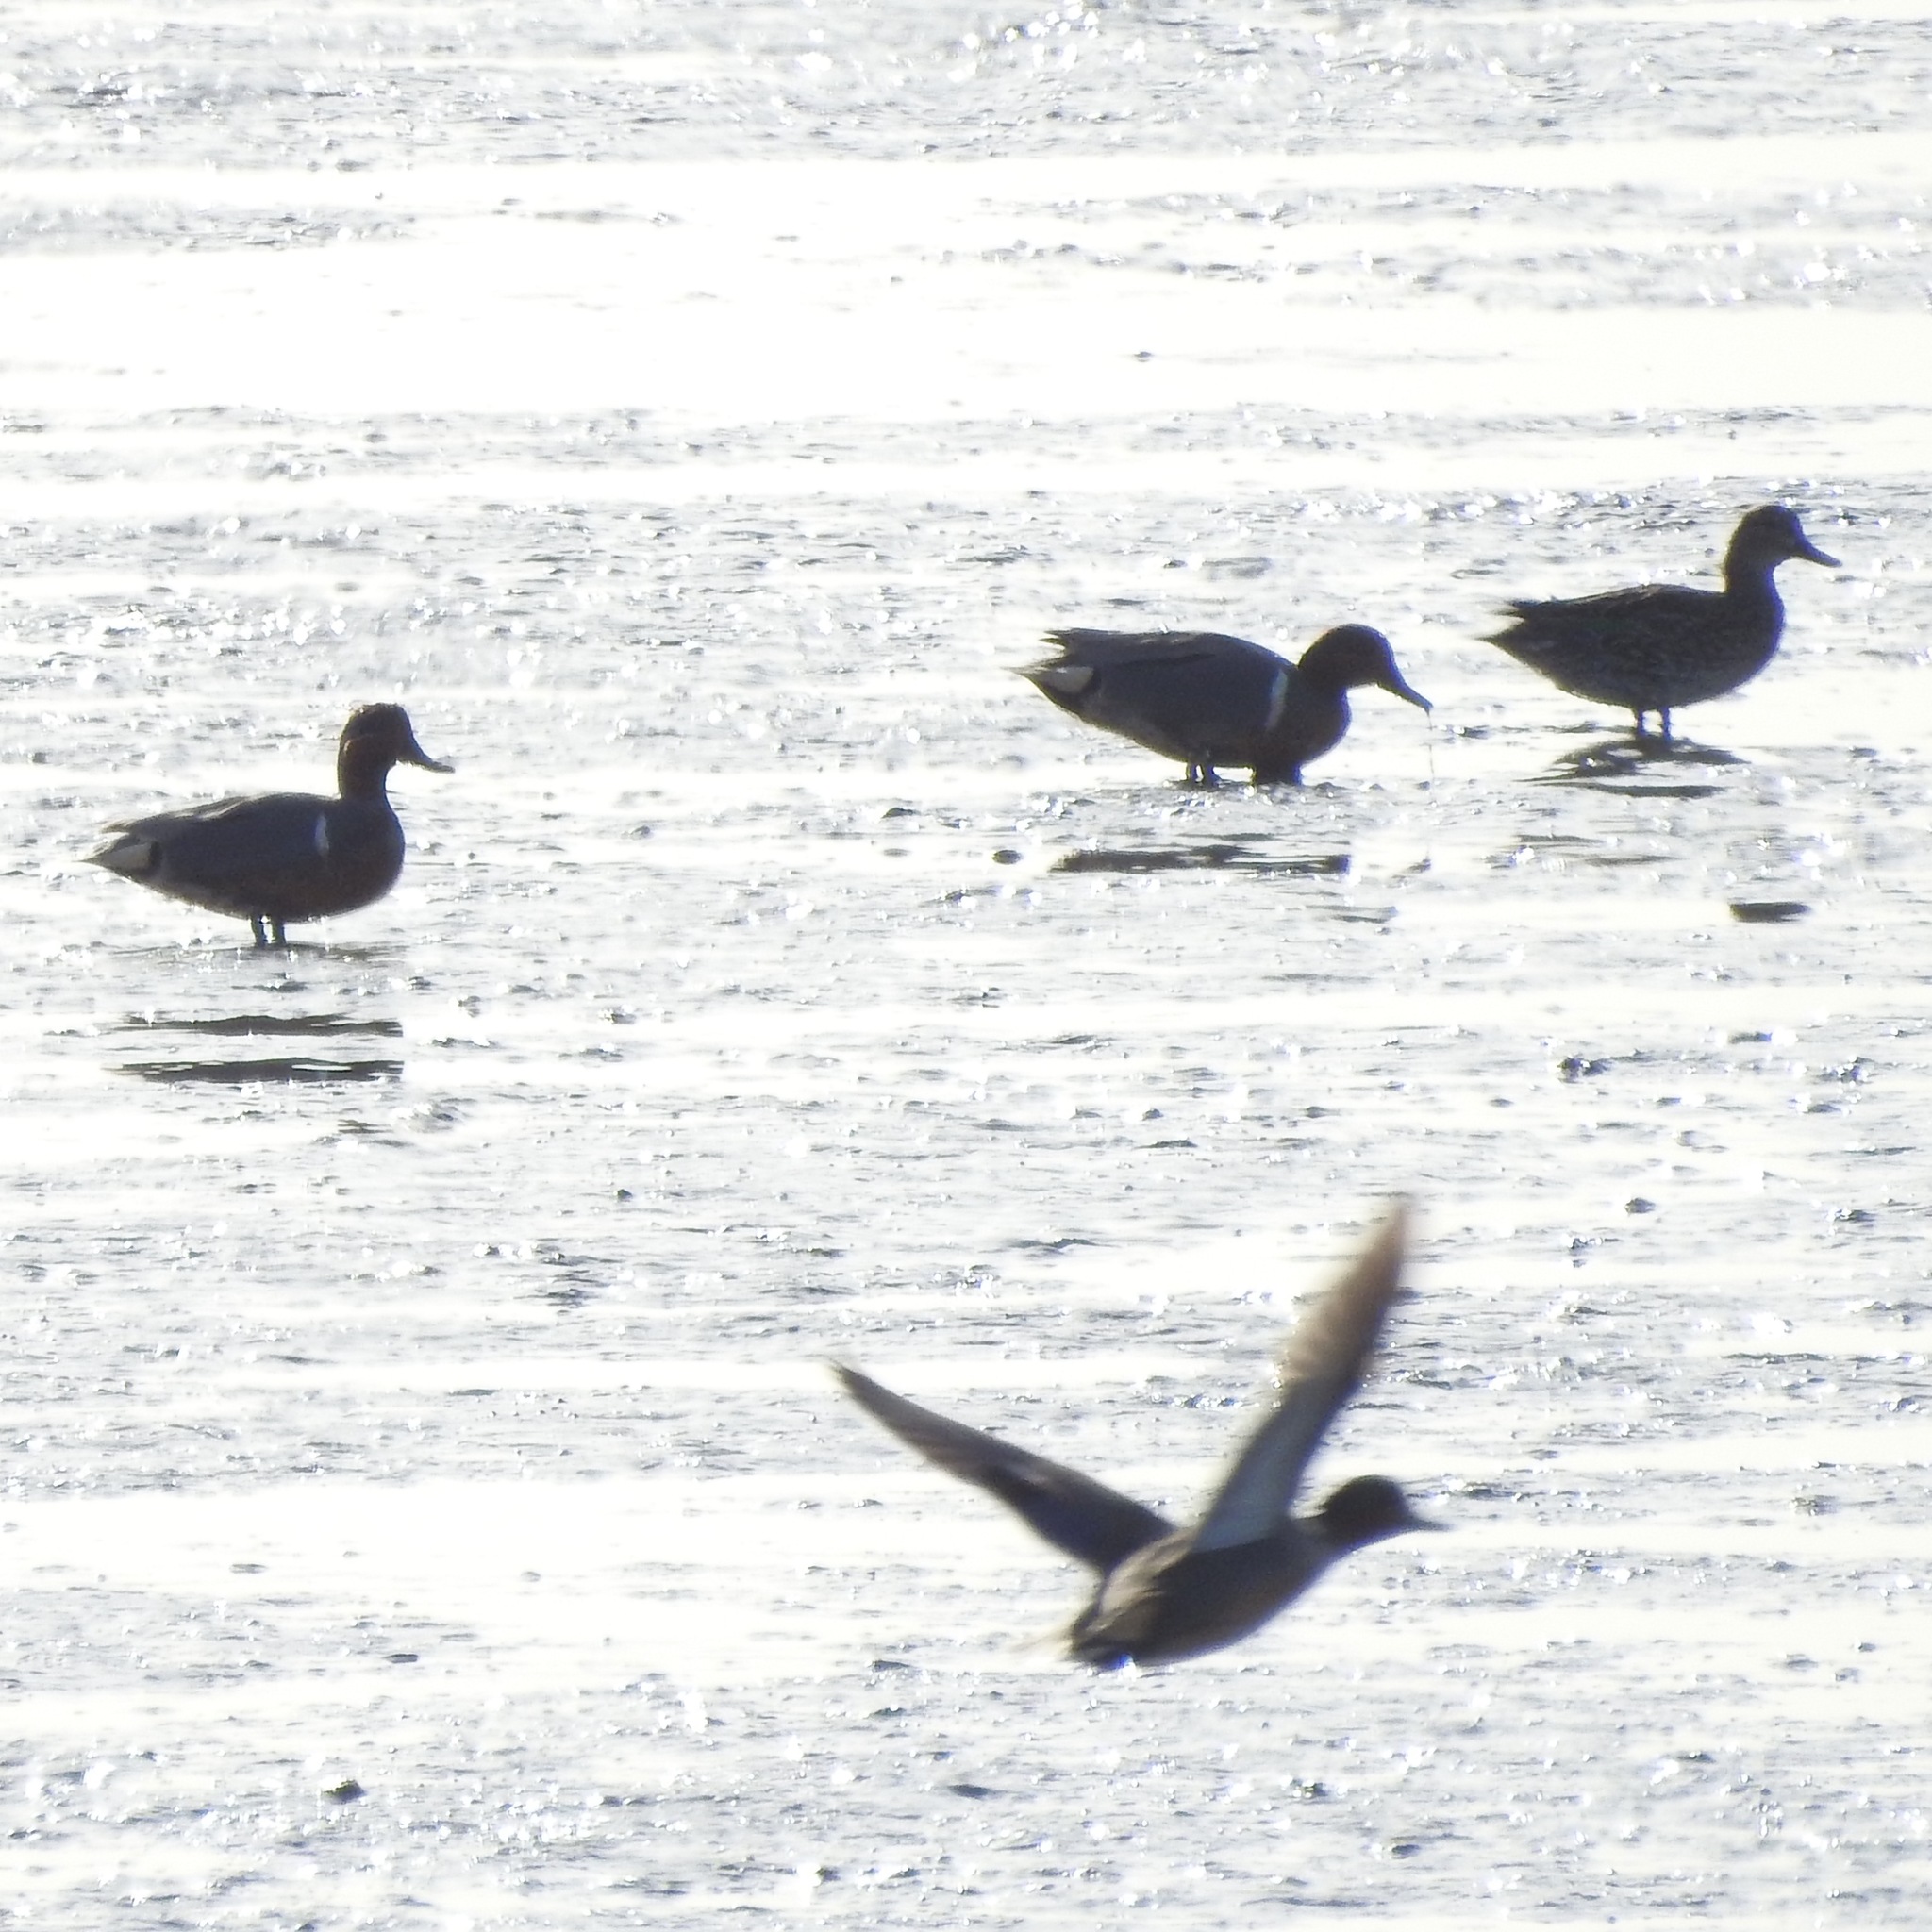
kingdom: Animalia
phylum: Chordata
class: Aves
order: Anseriformes
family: Anatidae
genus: Anas
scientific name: Anas carolinensis
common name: Green-winged teal
